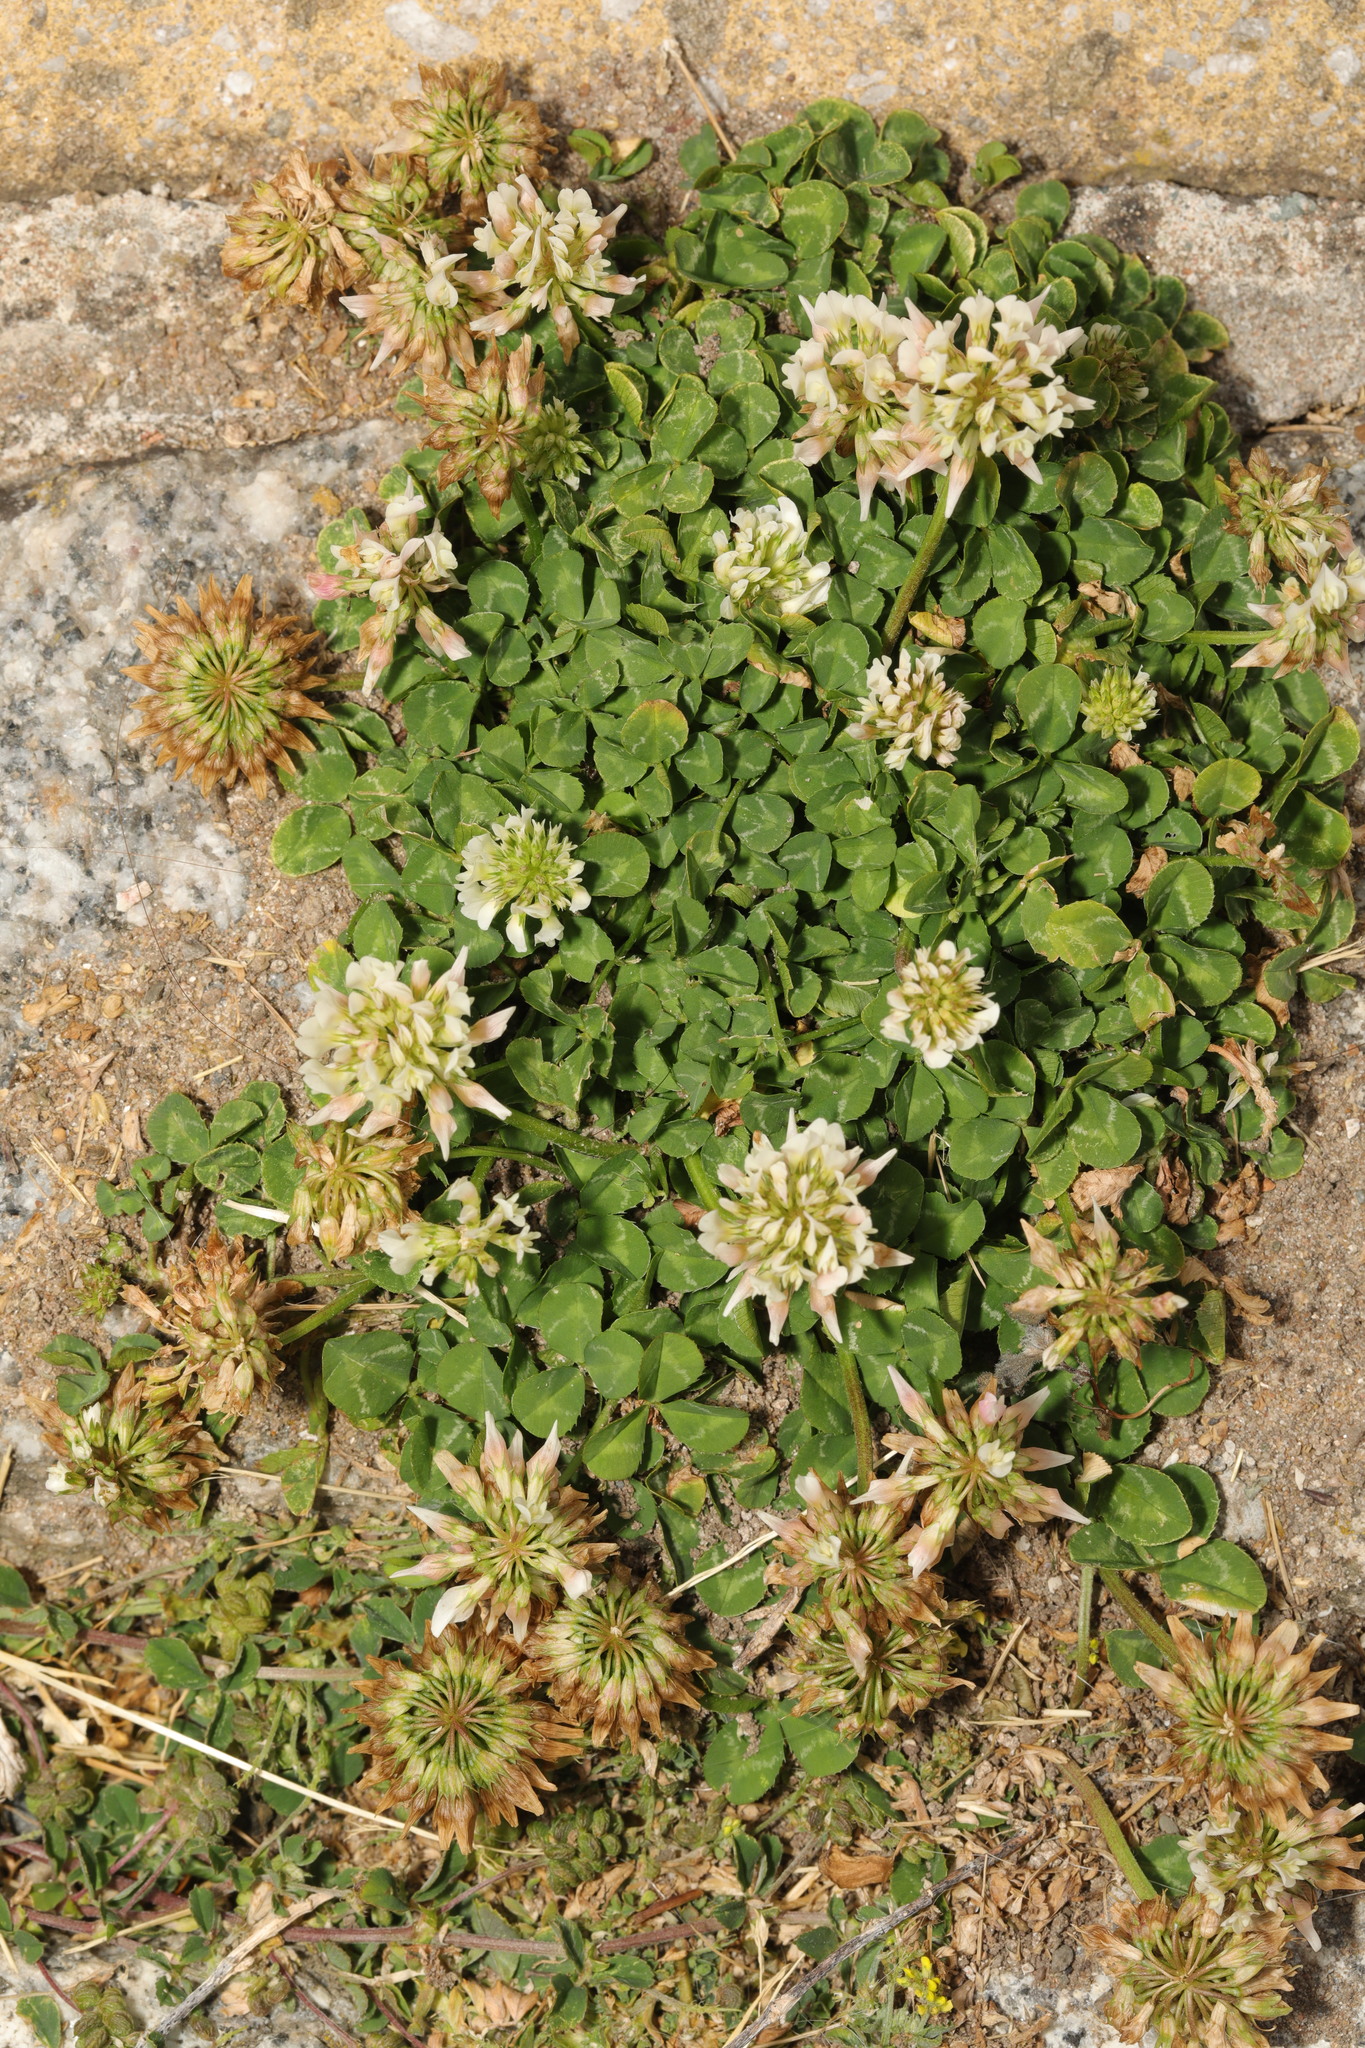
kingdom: Plantae
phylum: Tracheophyta
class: Magnoliopsida
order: Fabales
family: Fabaceae
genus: Trifolium
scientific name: Trifolium repens
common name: White clover
